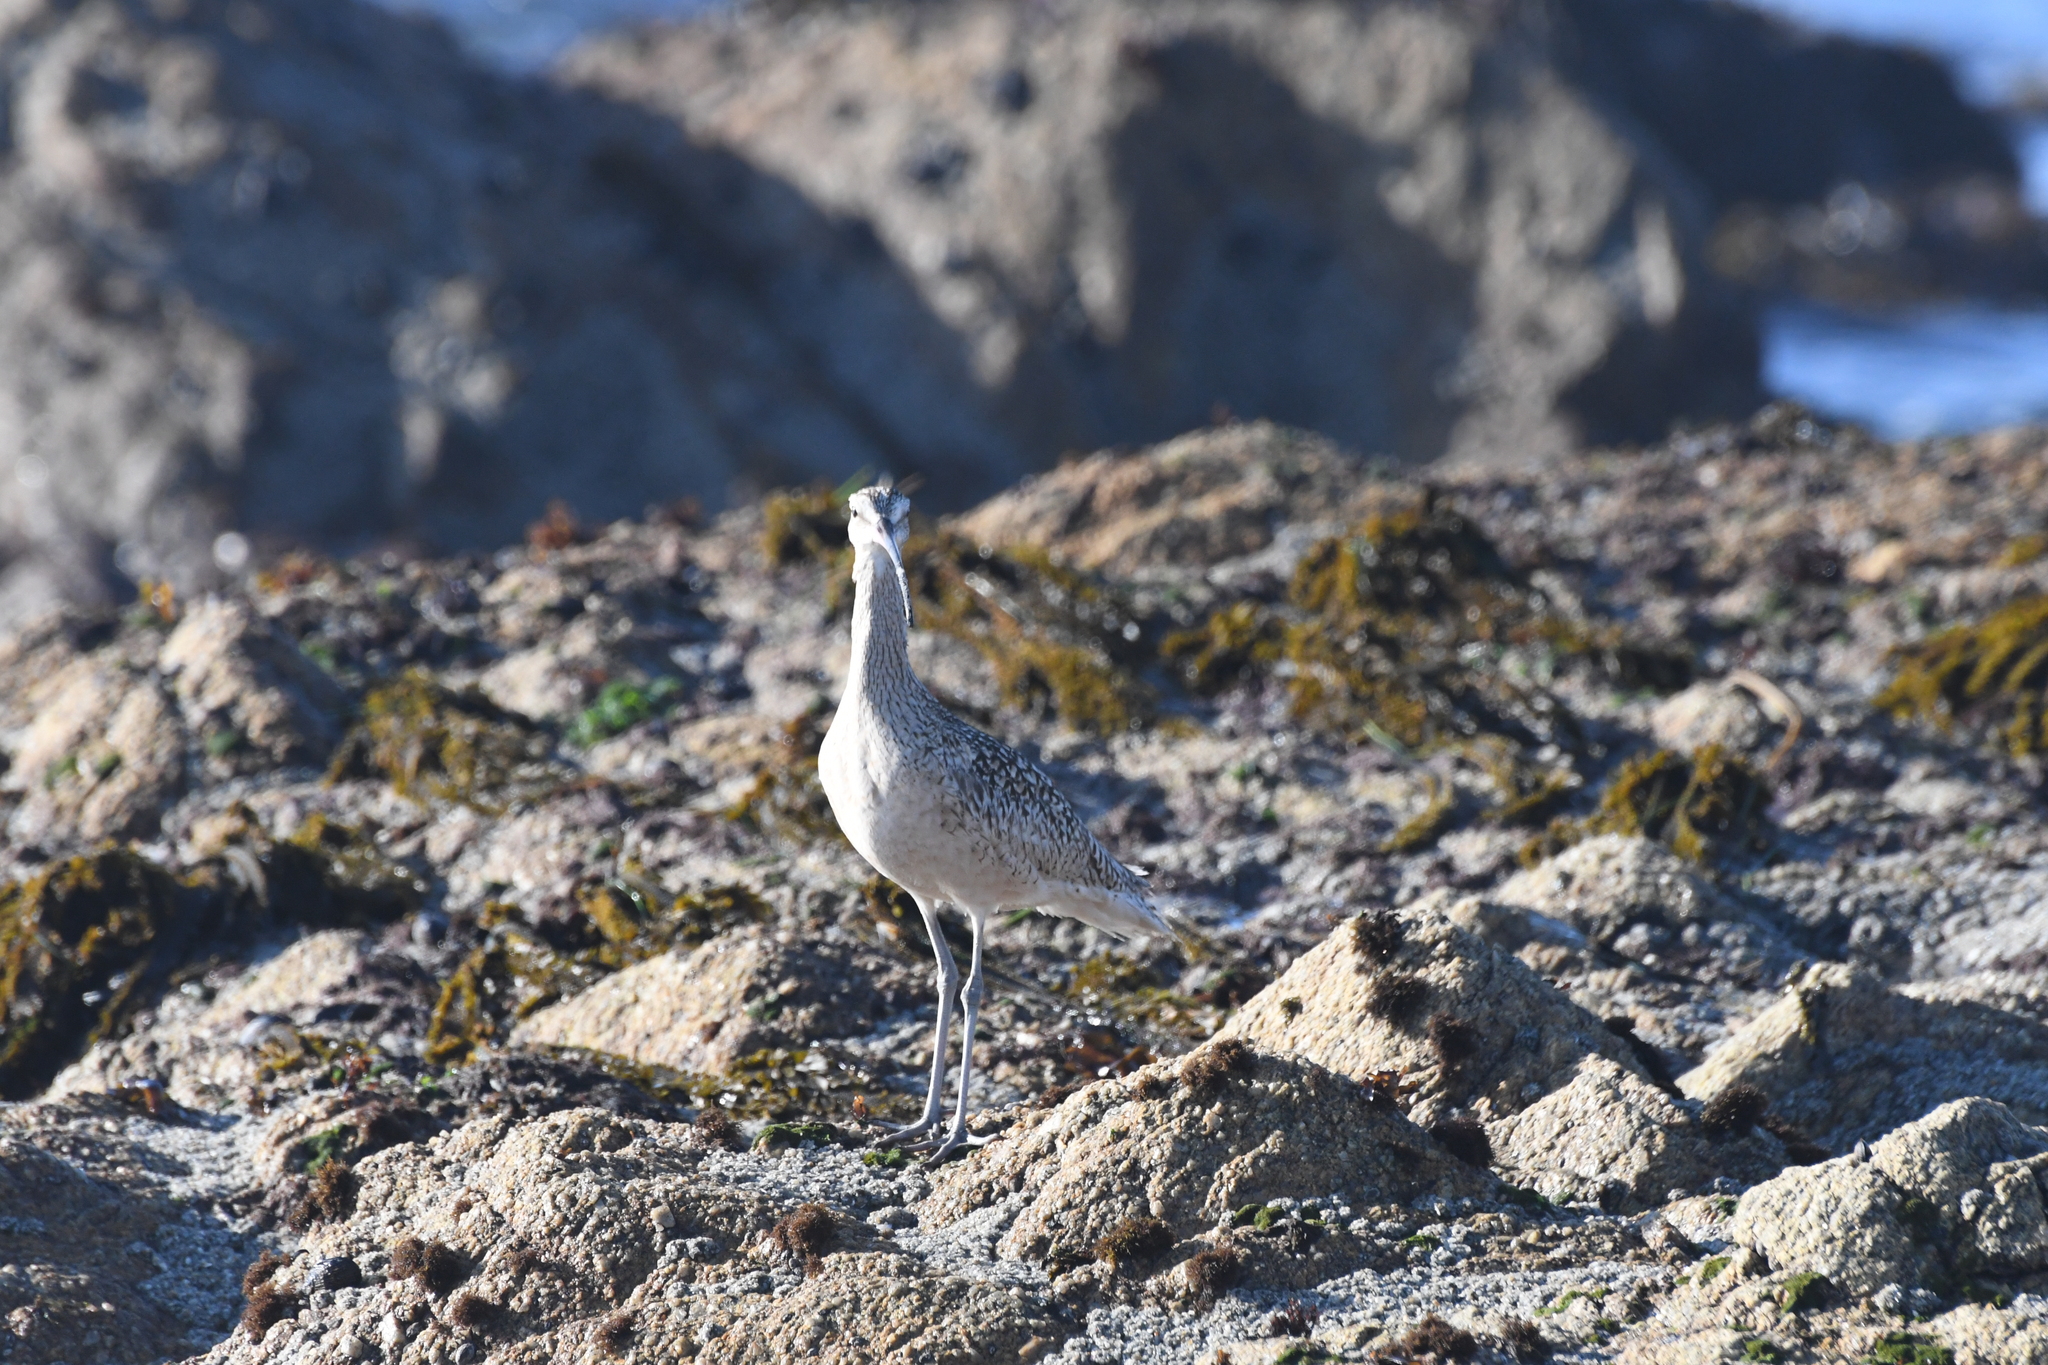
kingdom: Animalia
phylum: Chordata
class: Aves
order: Charadriiformes
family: Scolopacidae
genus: Numenius
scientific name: Numenius americanus
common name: Long-billed curlew
